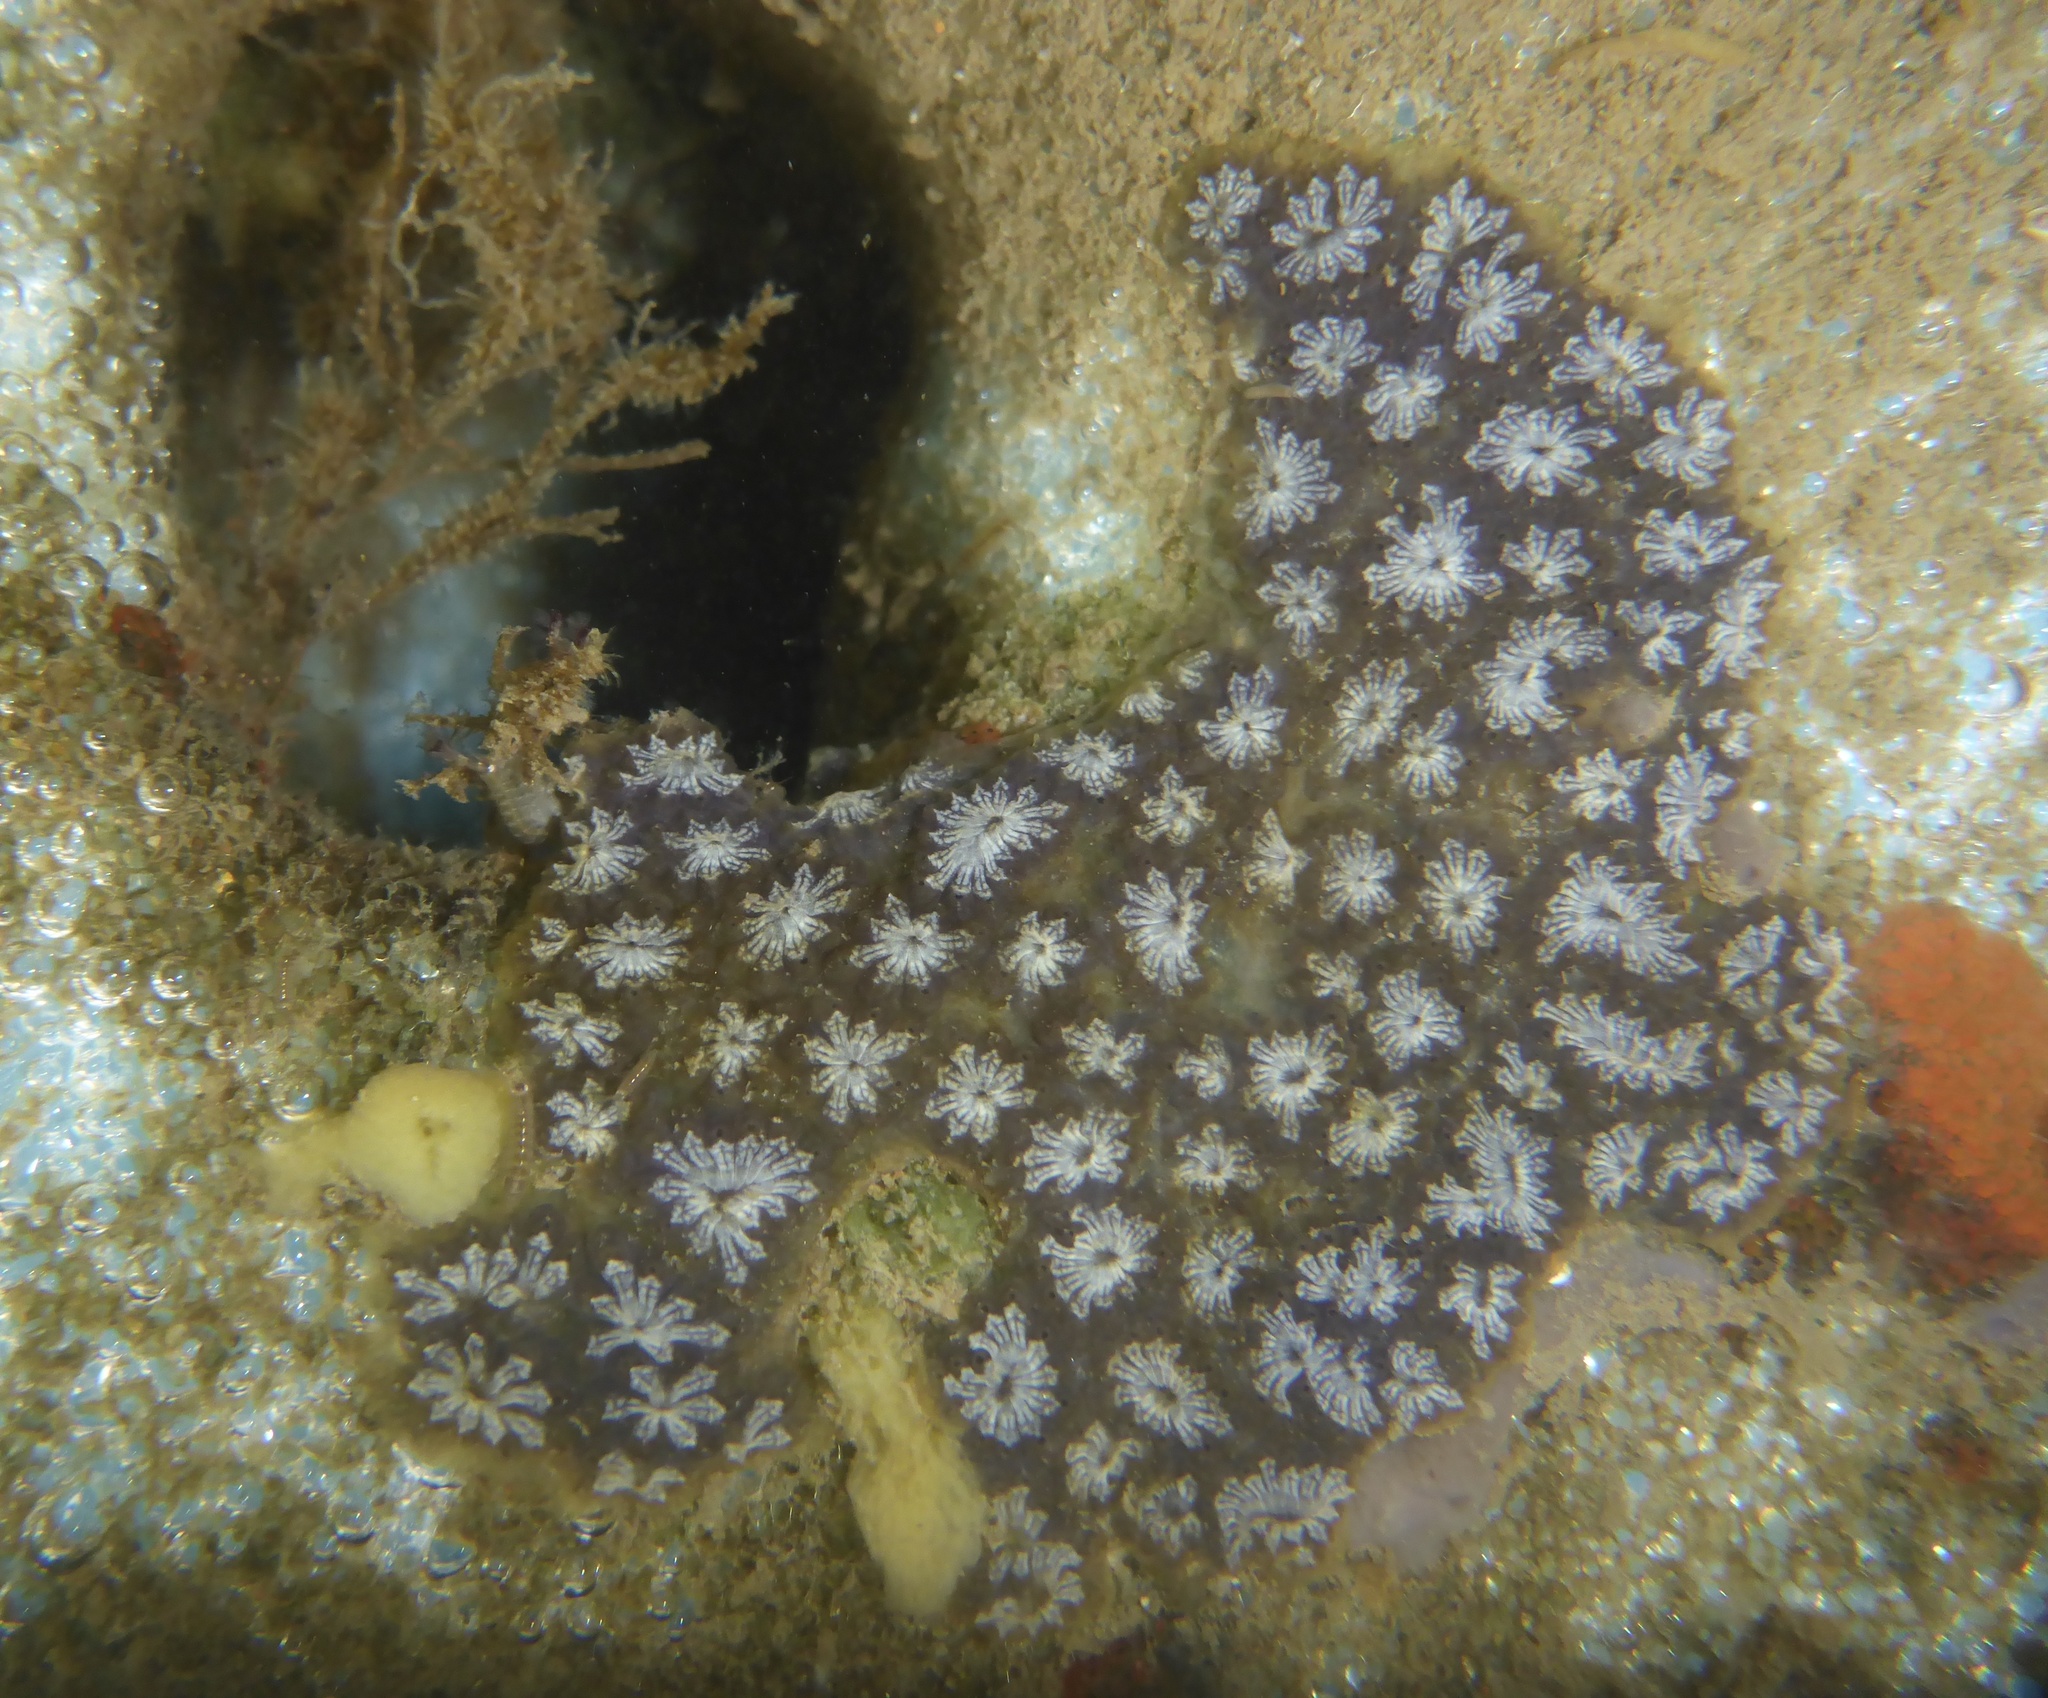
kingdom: Animalia
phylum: Chordata
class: Ascidiacea
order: Stolidobranchia
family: Styelidae
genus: Botryllus
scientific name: Botryllus schlosseri
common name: Golden star tunicate
